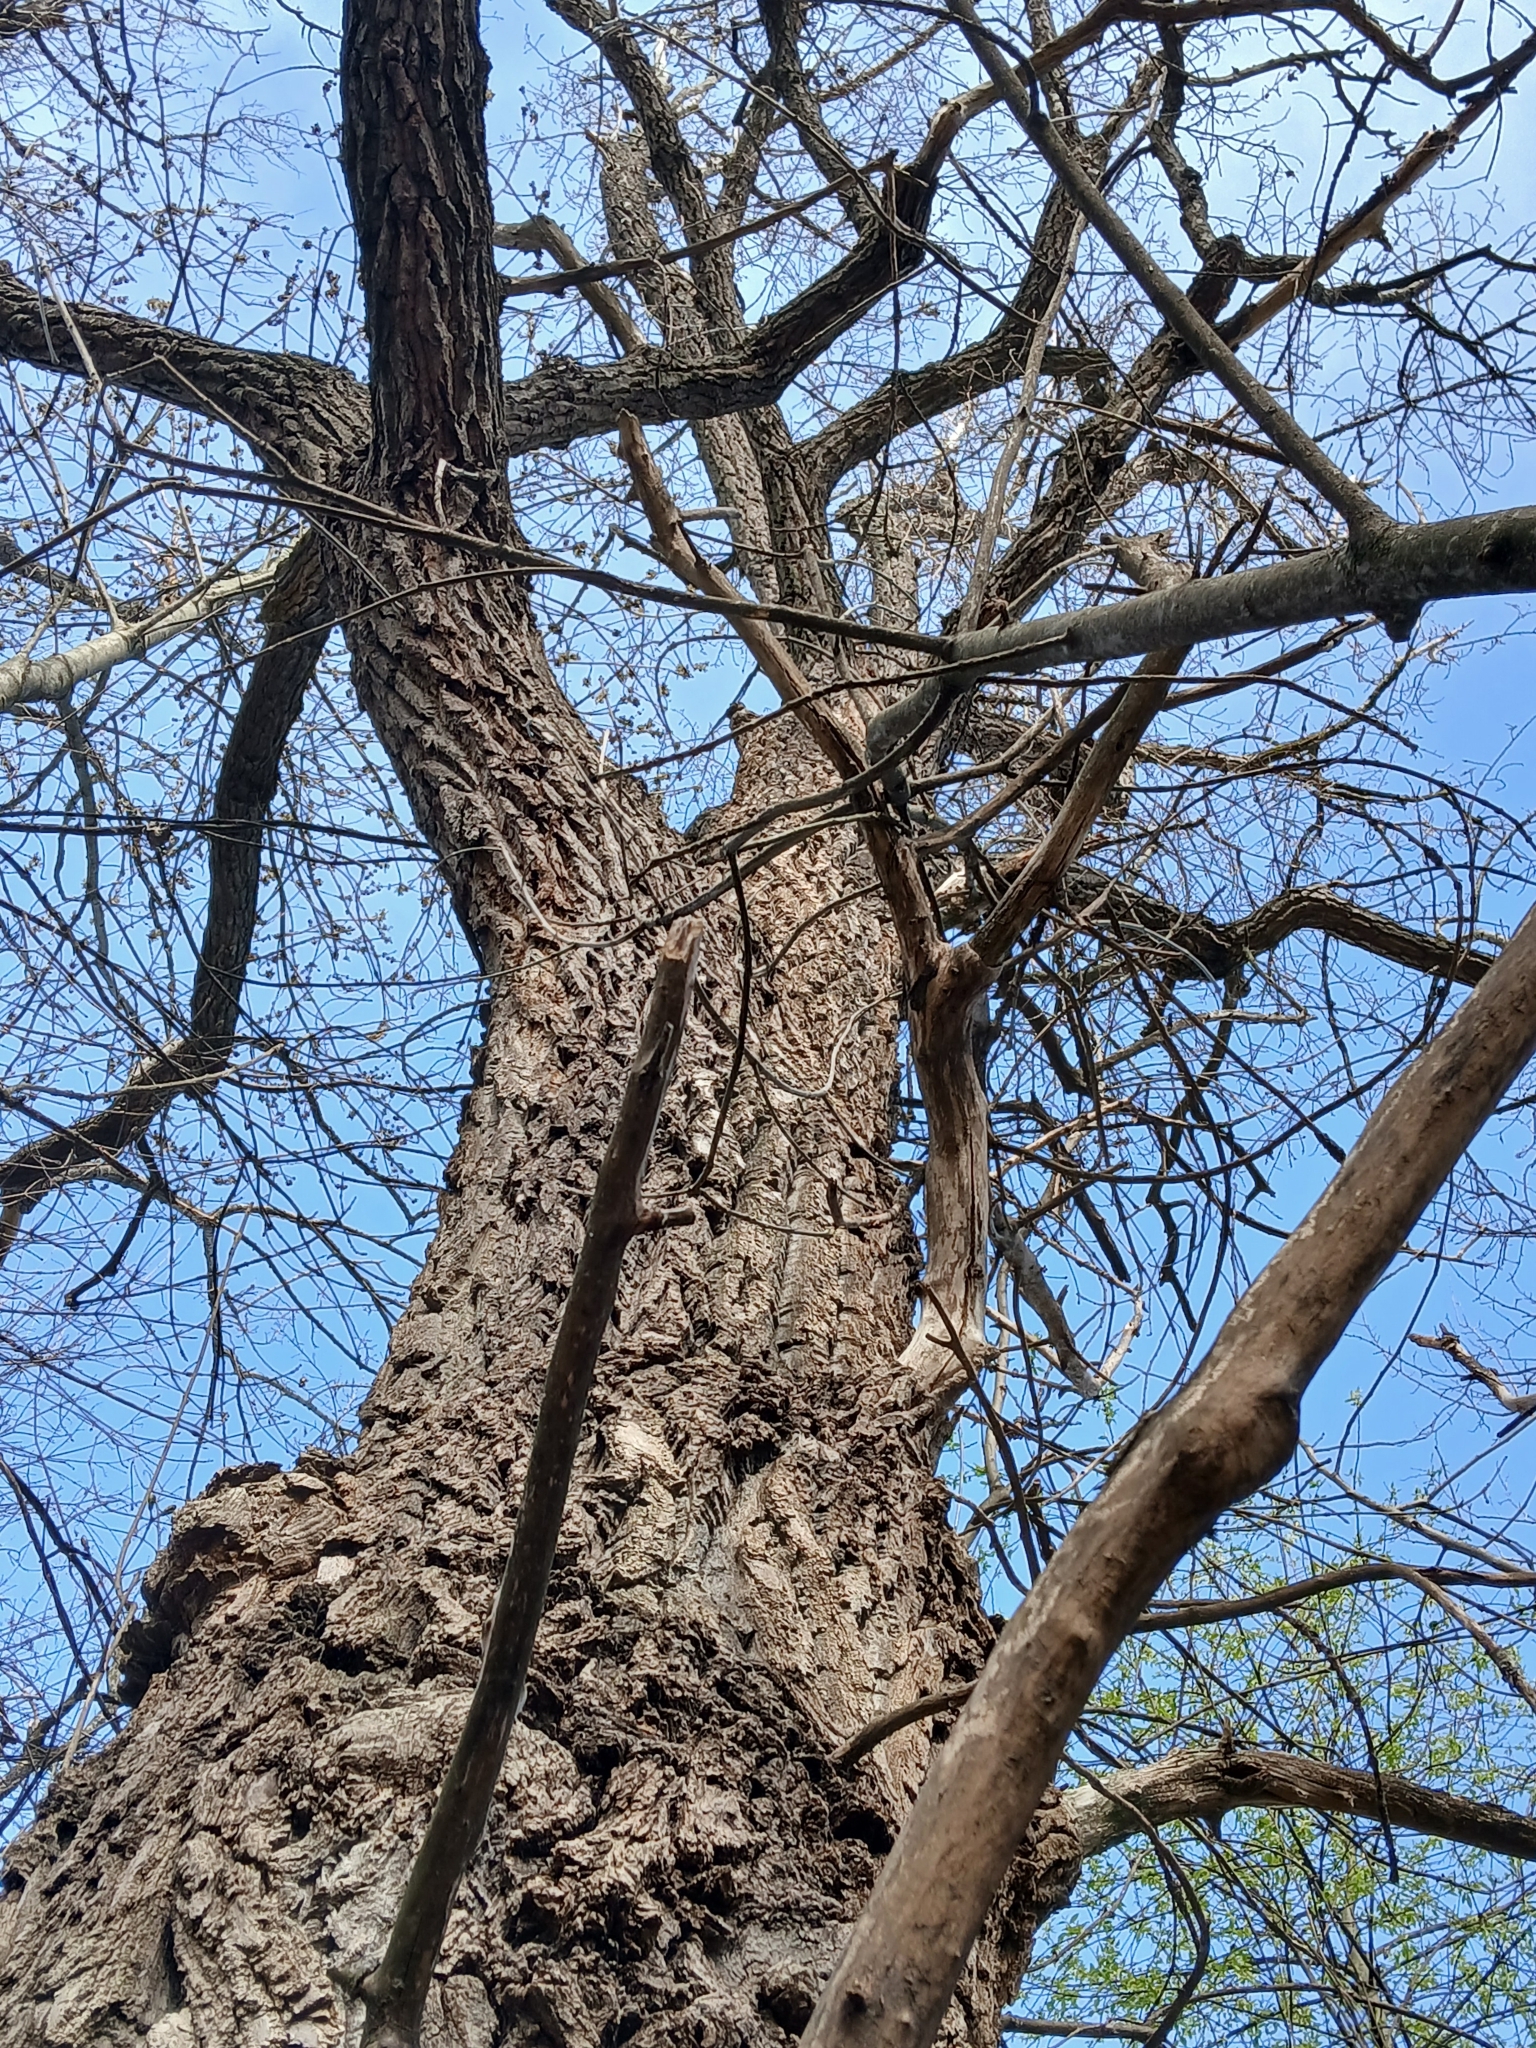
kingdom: Plantae
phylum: Tracheophyta
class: Magnoliopsida
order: Malpighiales
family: Salicaceae
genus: Populus
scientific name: Populus nigra
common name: Black poplar
